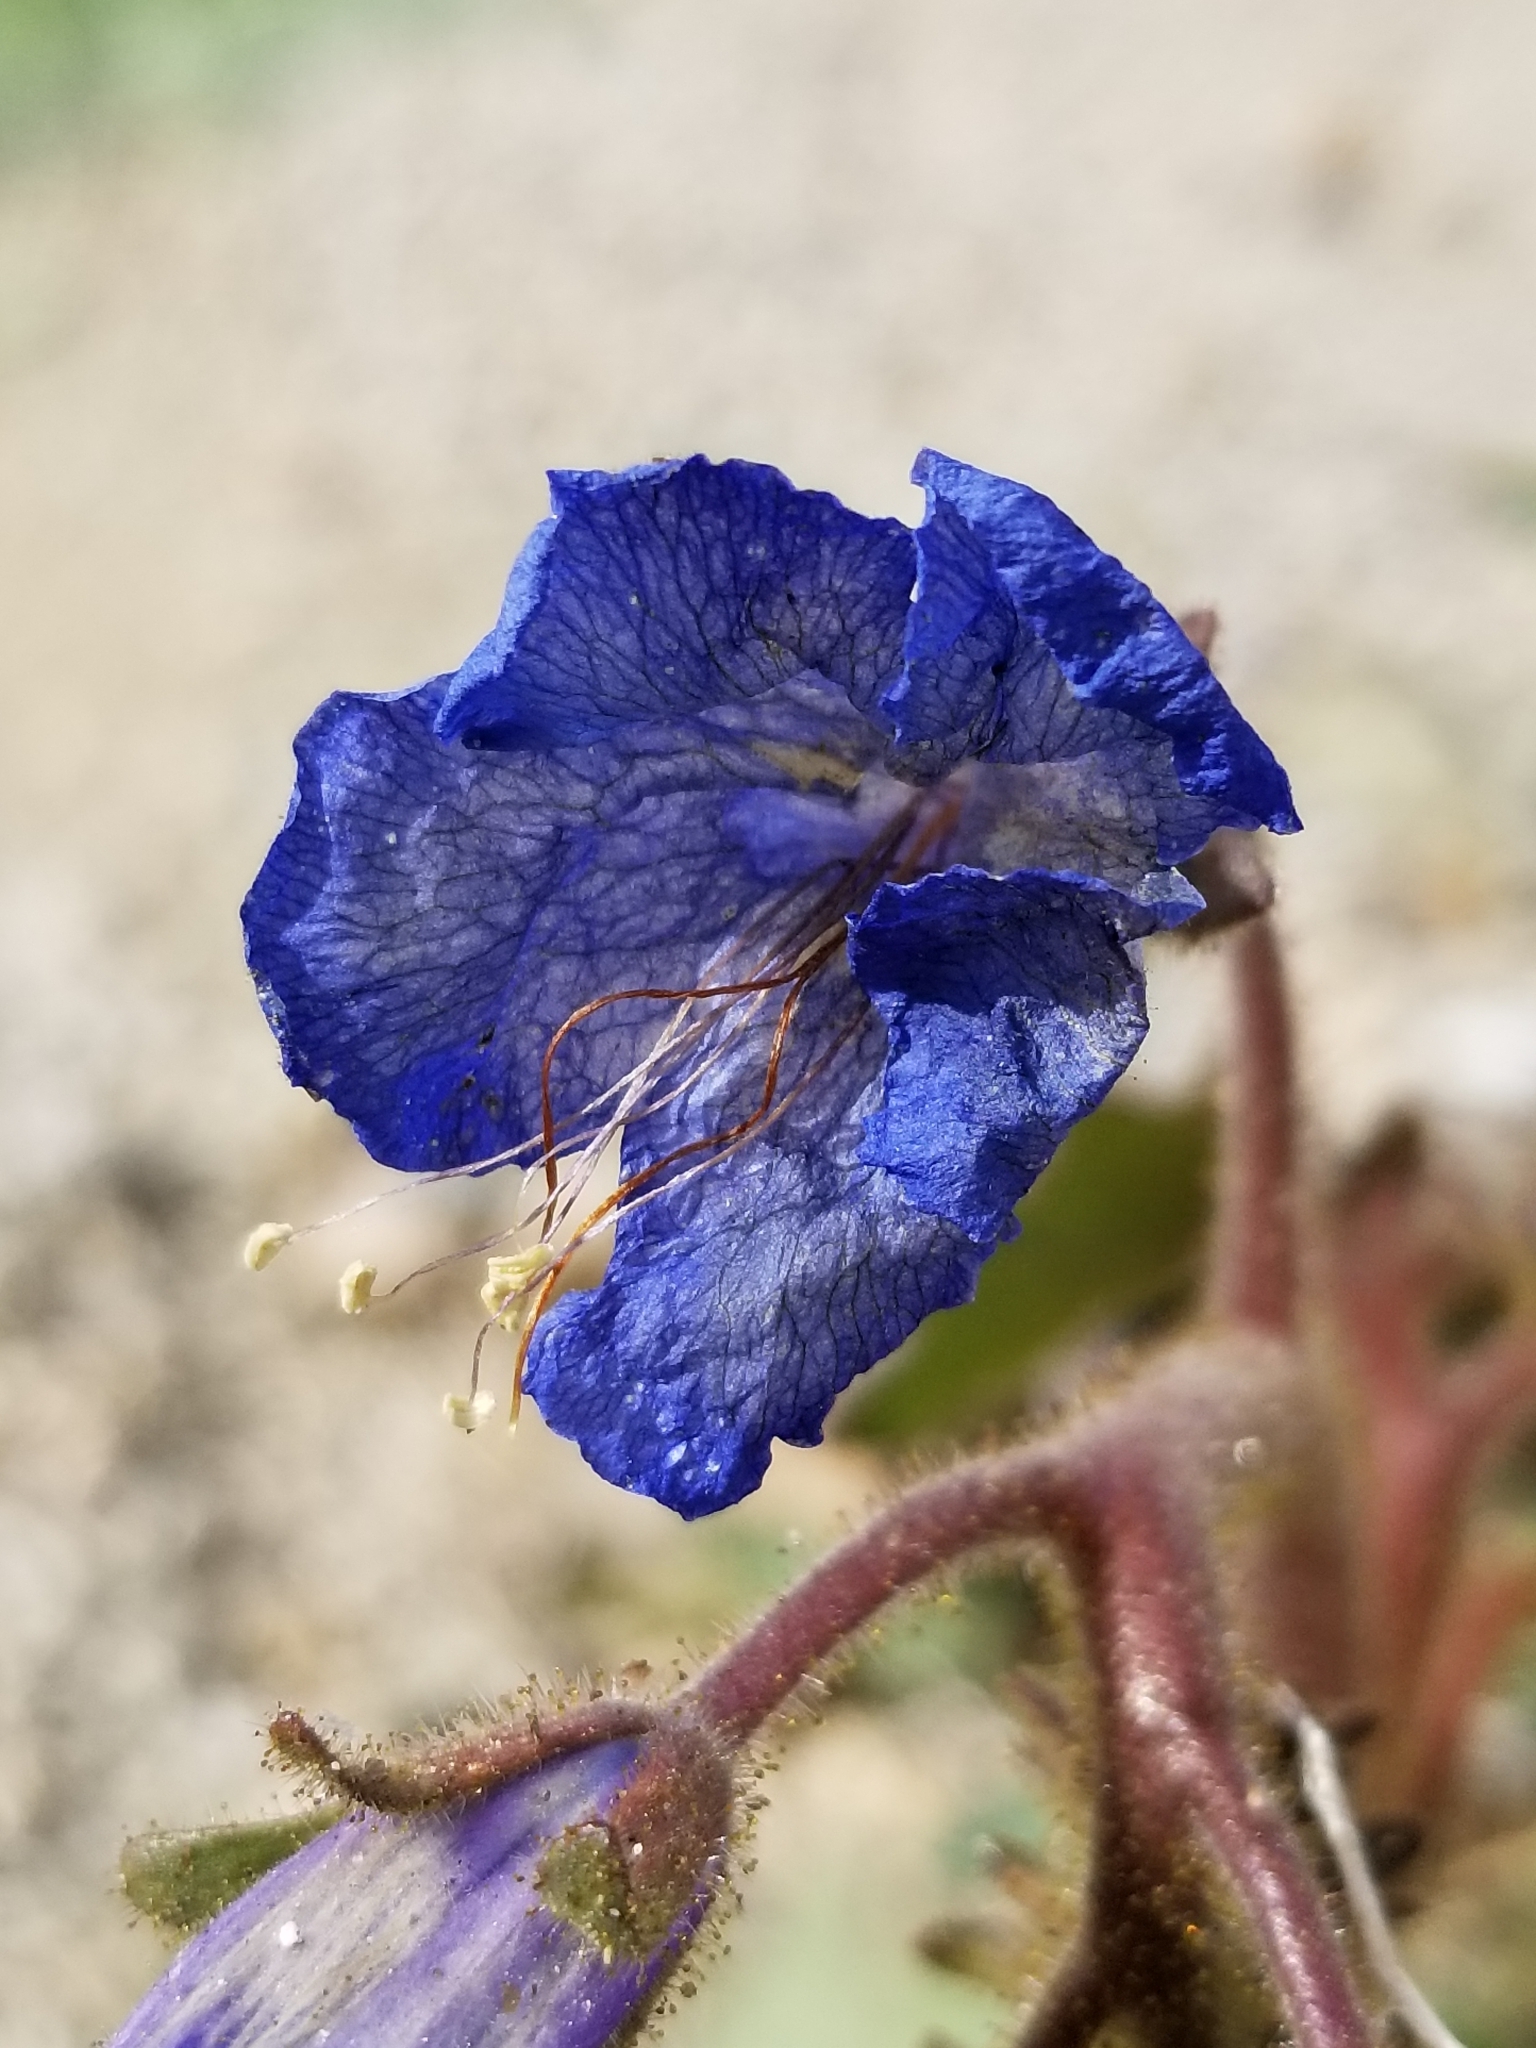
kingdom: Plantae
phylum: Tracheophyta
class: Magnoliopsida
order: Boraginales
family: Hydrophyllaceae
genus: Phacelia
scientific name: Phacelia campanularia
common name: California bluebell
